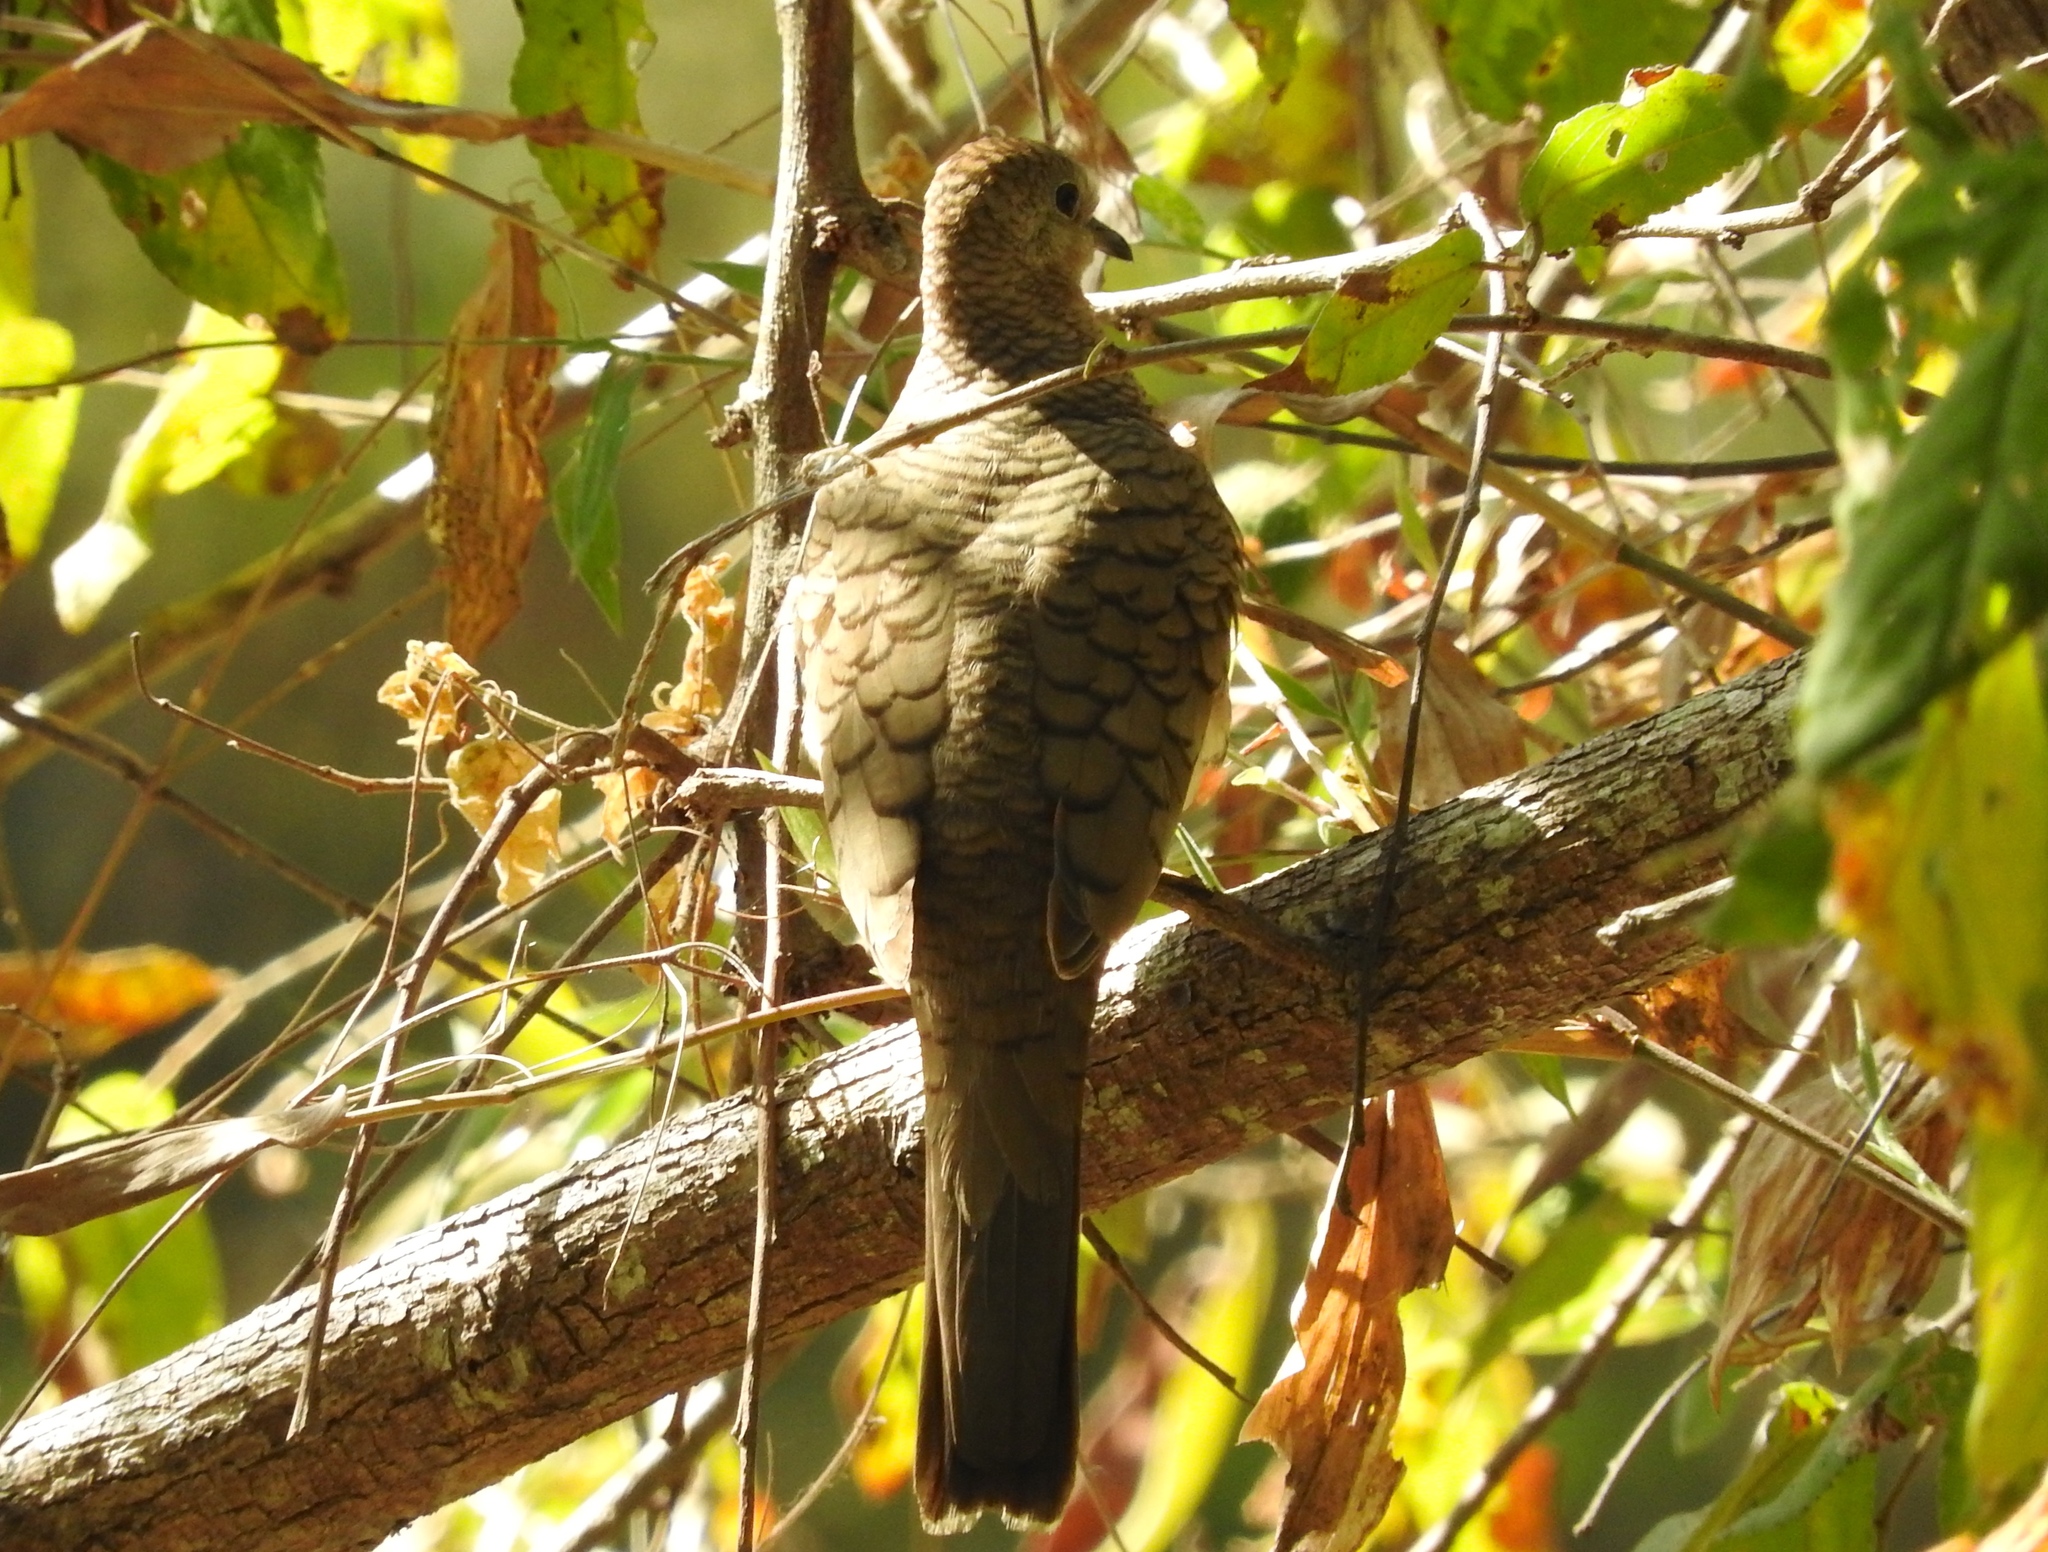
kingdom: Animalia
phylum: Chordata
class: Aves
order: Columbiformes
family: Columbidae
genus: Columbina
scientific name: Columbina inca
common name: Inca dove
